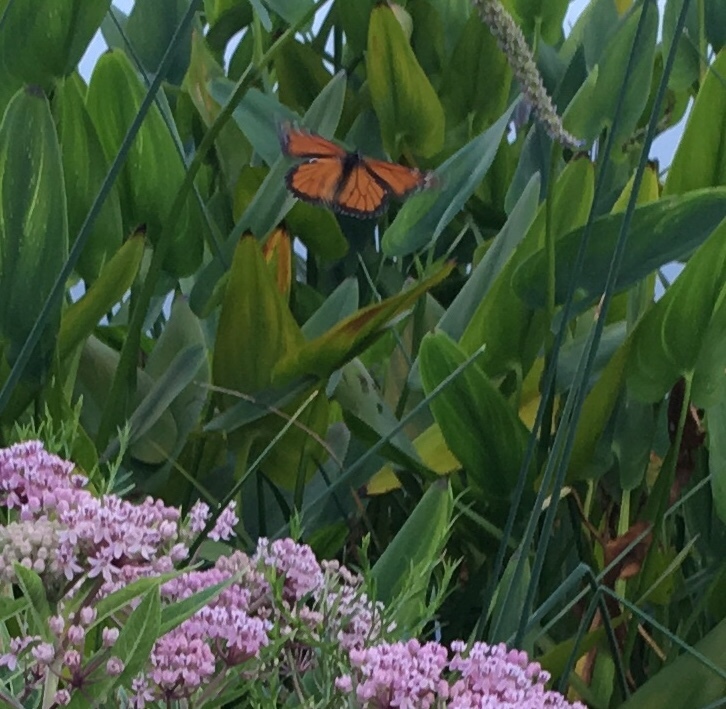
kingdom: Animalia
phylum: Arthropoda
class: Insecta
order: Lepidoptera
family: Nymphalidae
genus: Danaus
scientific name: Danaus plexippus
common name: Monarch
